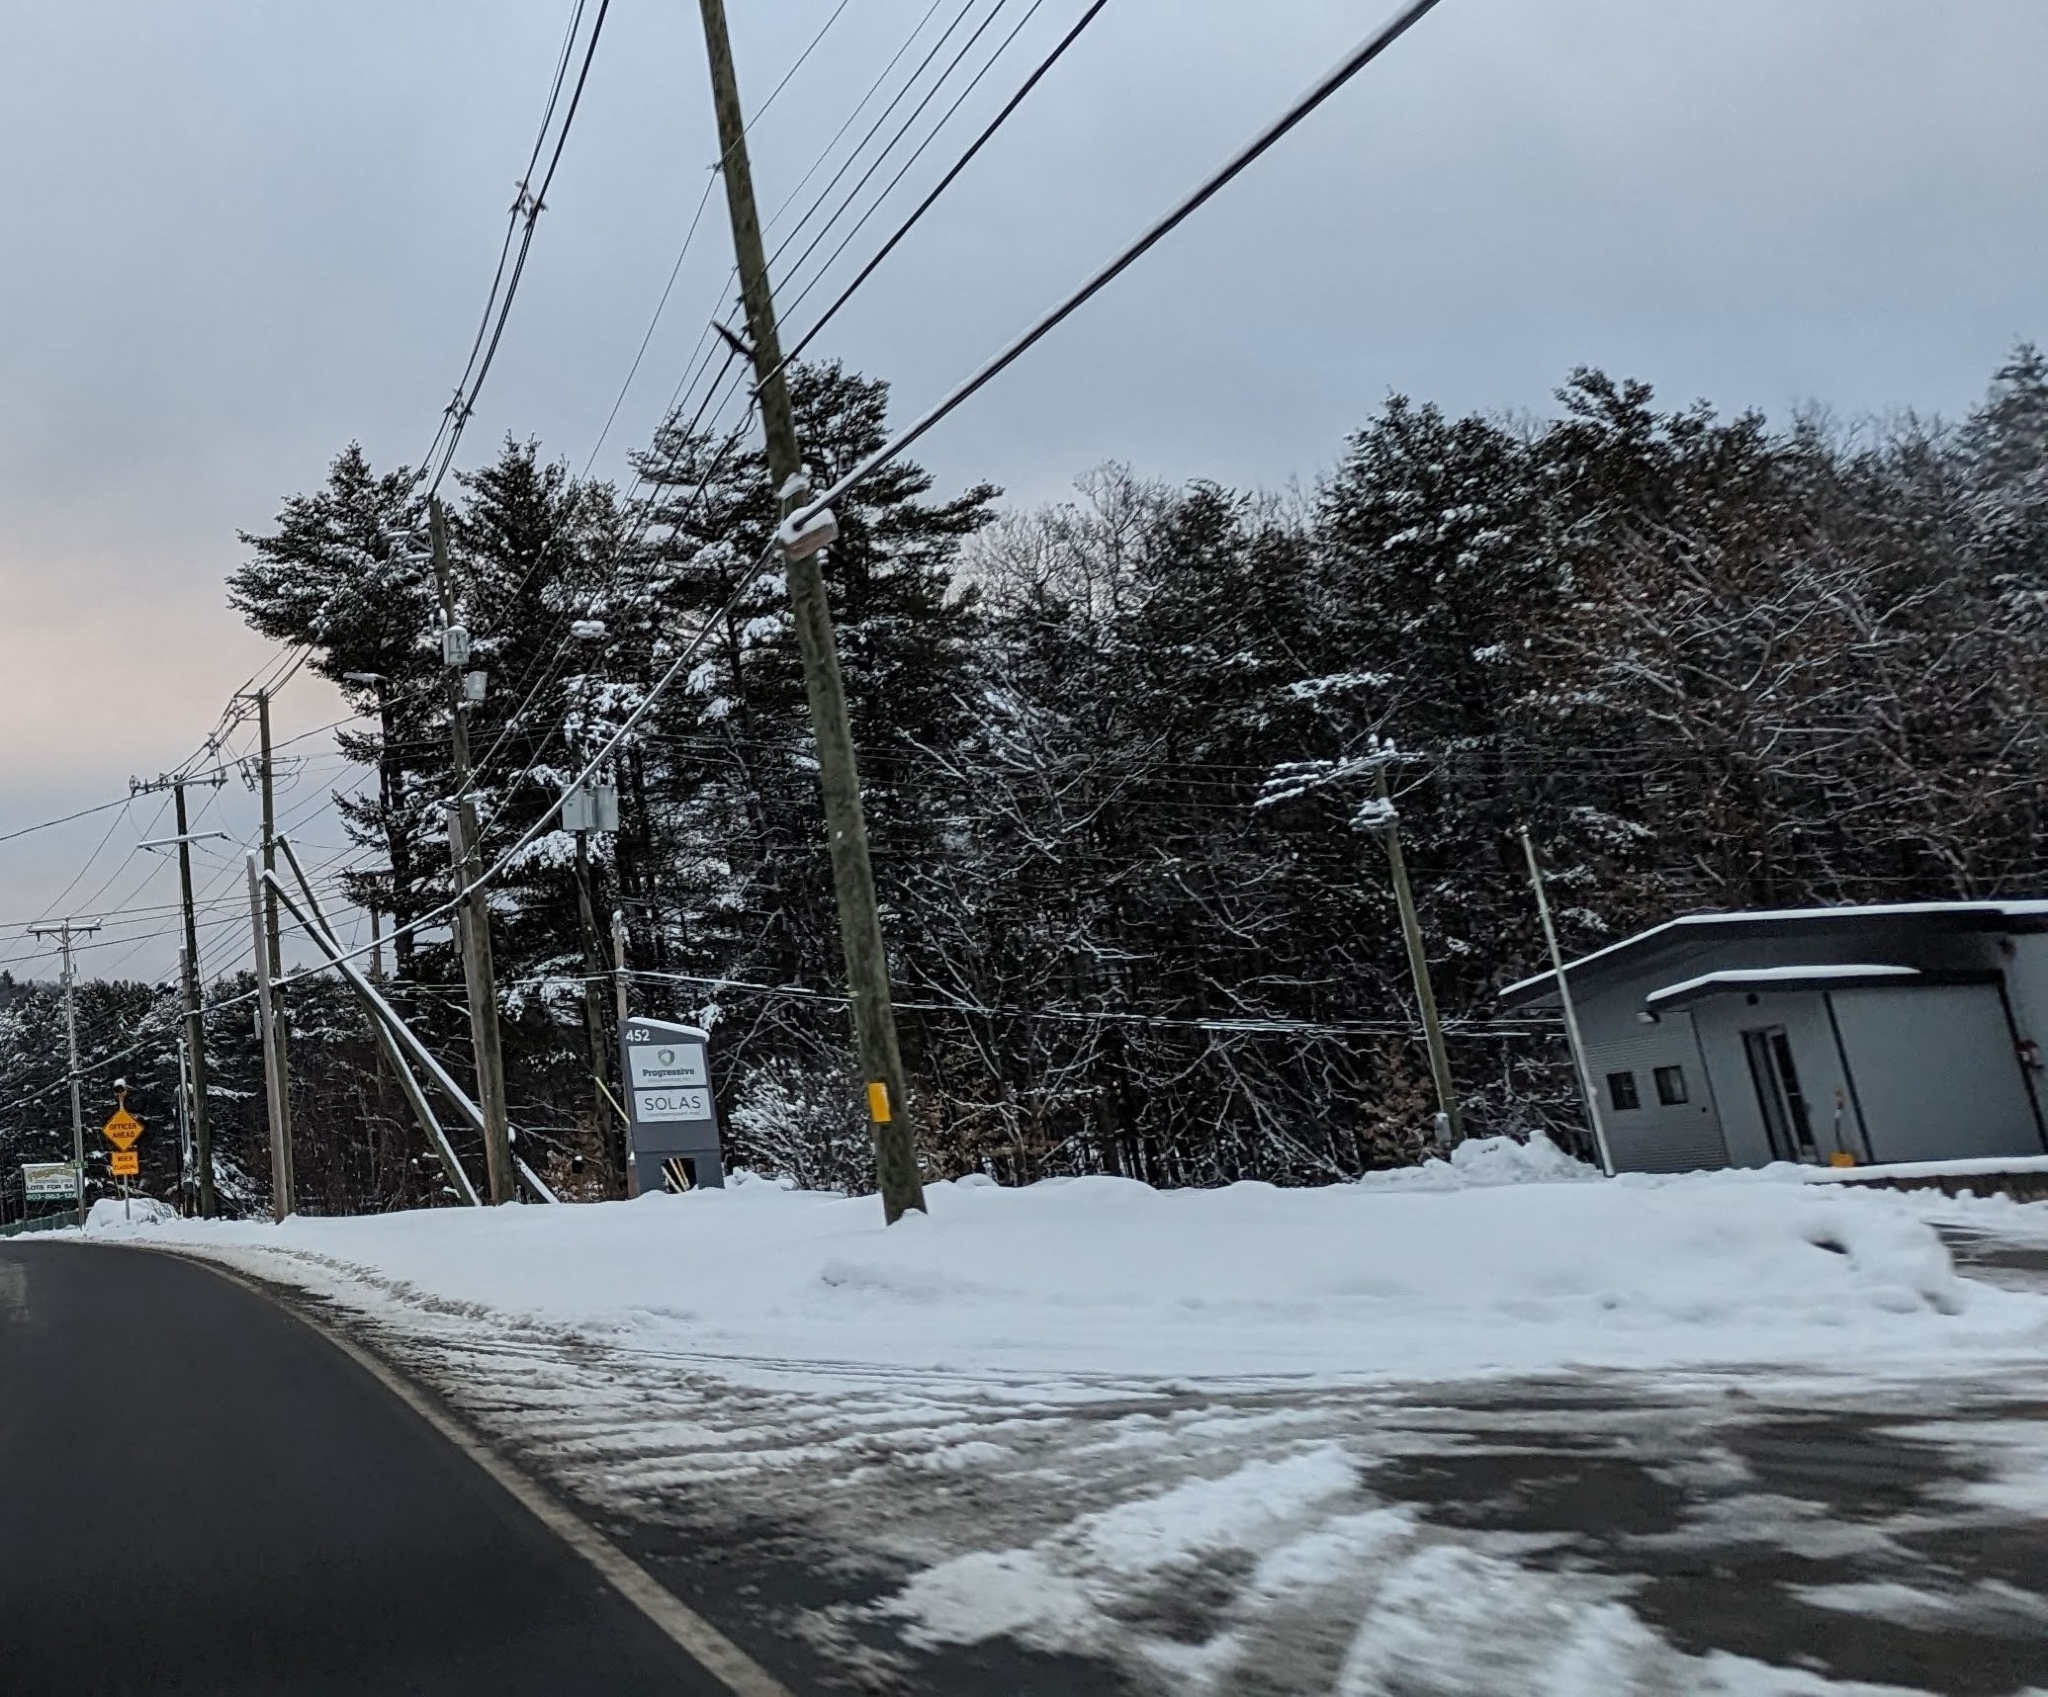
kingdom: Plantae
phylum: Tracheophyta
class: Pinopsida
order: Pinales
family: Pinaceae
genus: Pinus
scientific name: Pinus strobus
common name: Weymouth pine
